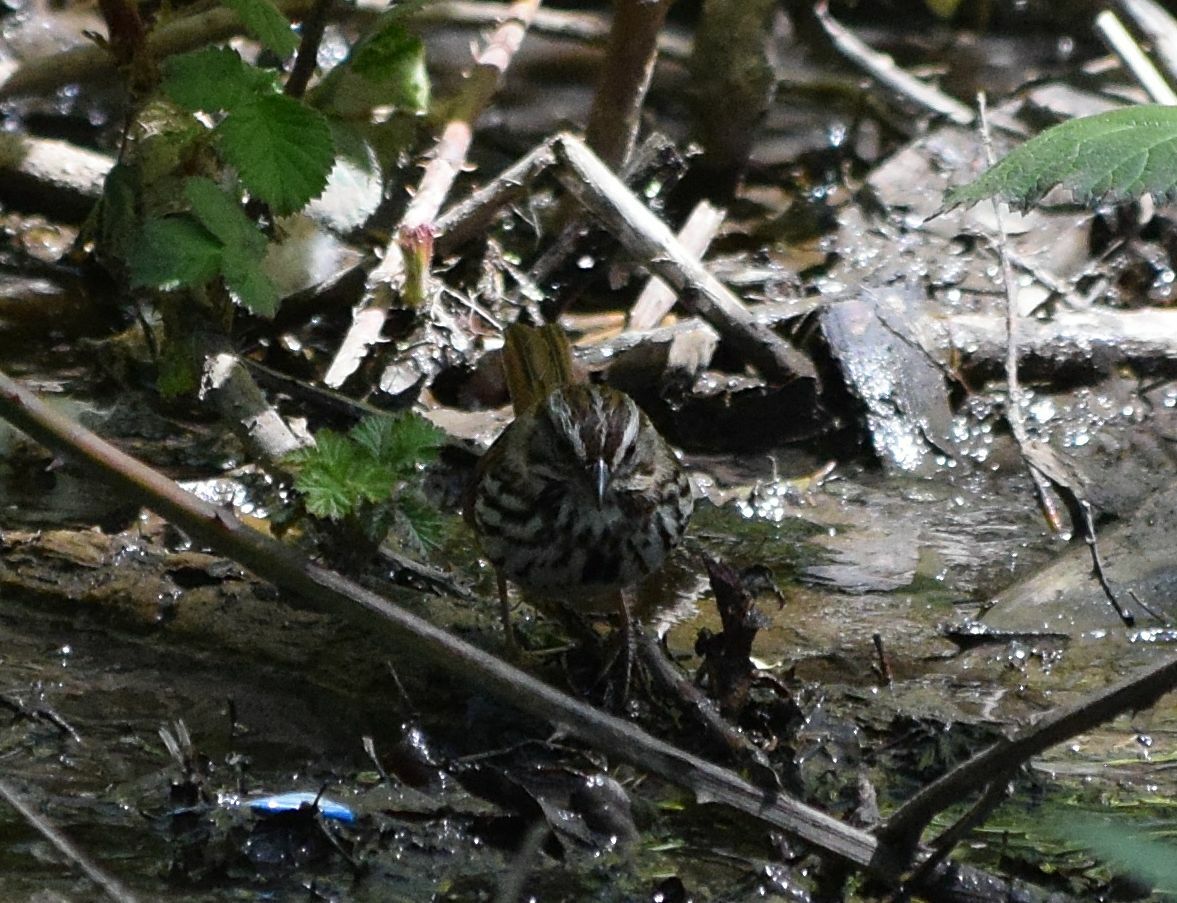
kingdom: Animalia
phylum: Chordata
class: Aves
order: Passeriformes
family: Passerellidae
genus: Melospiza
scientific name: Melospiza melodia
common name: Song sparrow
